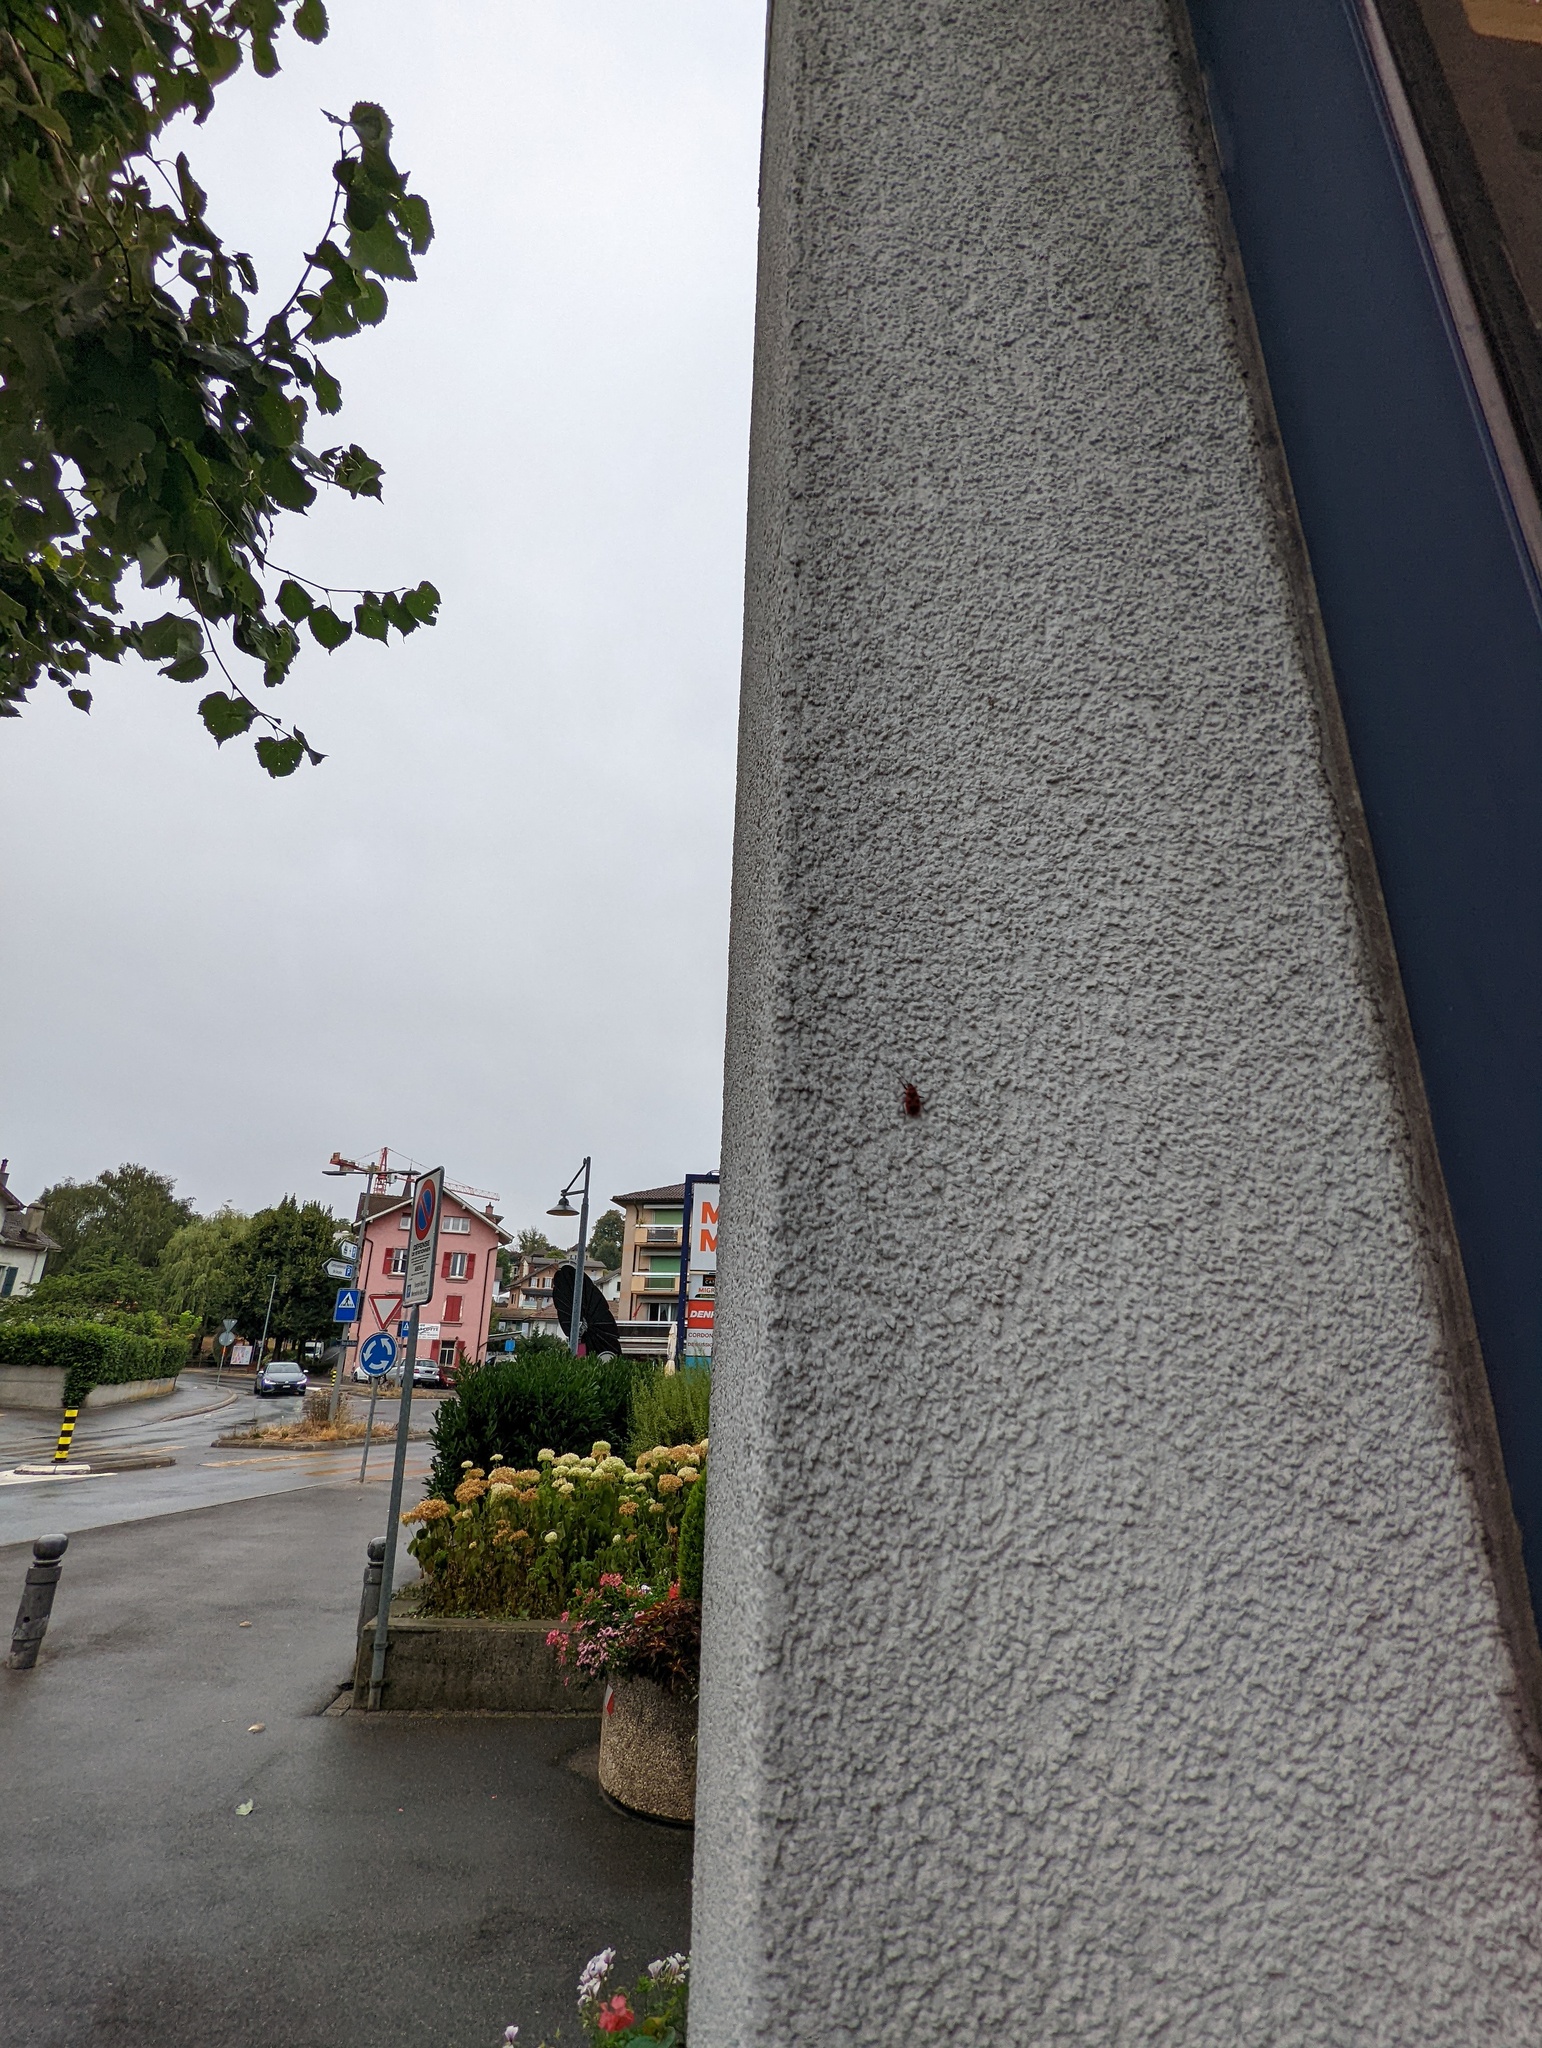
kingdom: Animalia
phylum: Arthropoda
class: Insecta
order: Hemiptera
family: Pyrrhocoridae
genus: Pyrrhocoris
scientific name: Pyrrhocoris apterus
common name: Firebug
